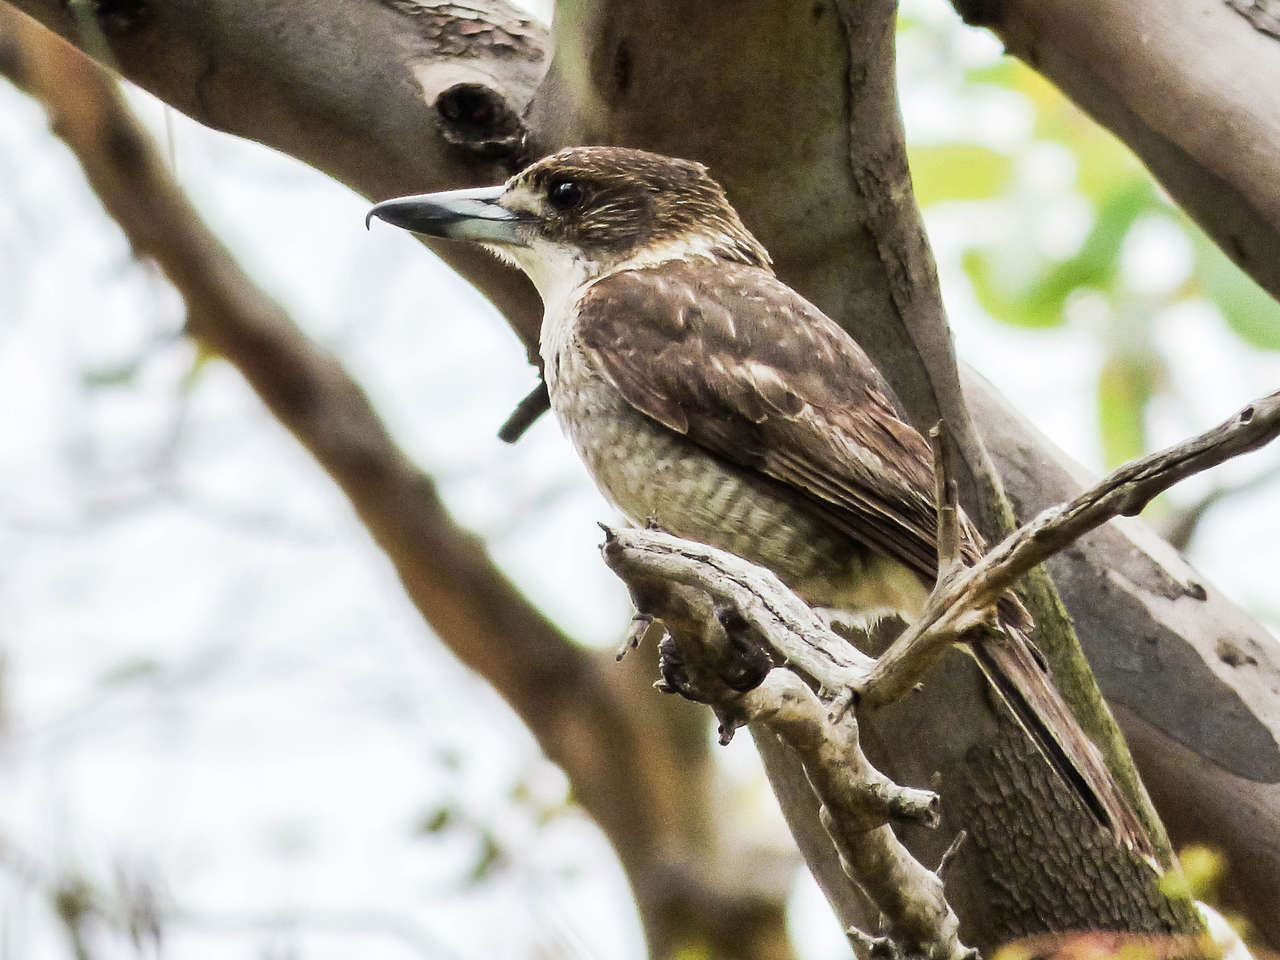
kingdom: Animalia
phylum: Chordata
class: Aves
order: Passeriformes
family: Cracticidae
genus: Cracticus
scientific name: Cracticus torquatus
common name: Grey butcherbird
